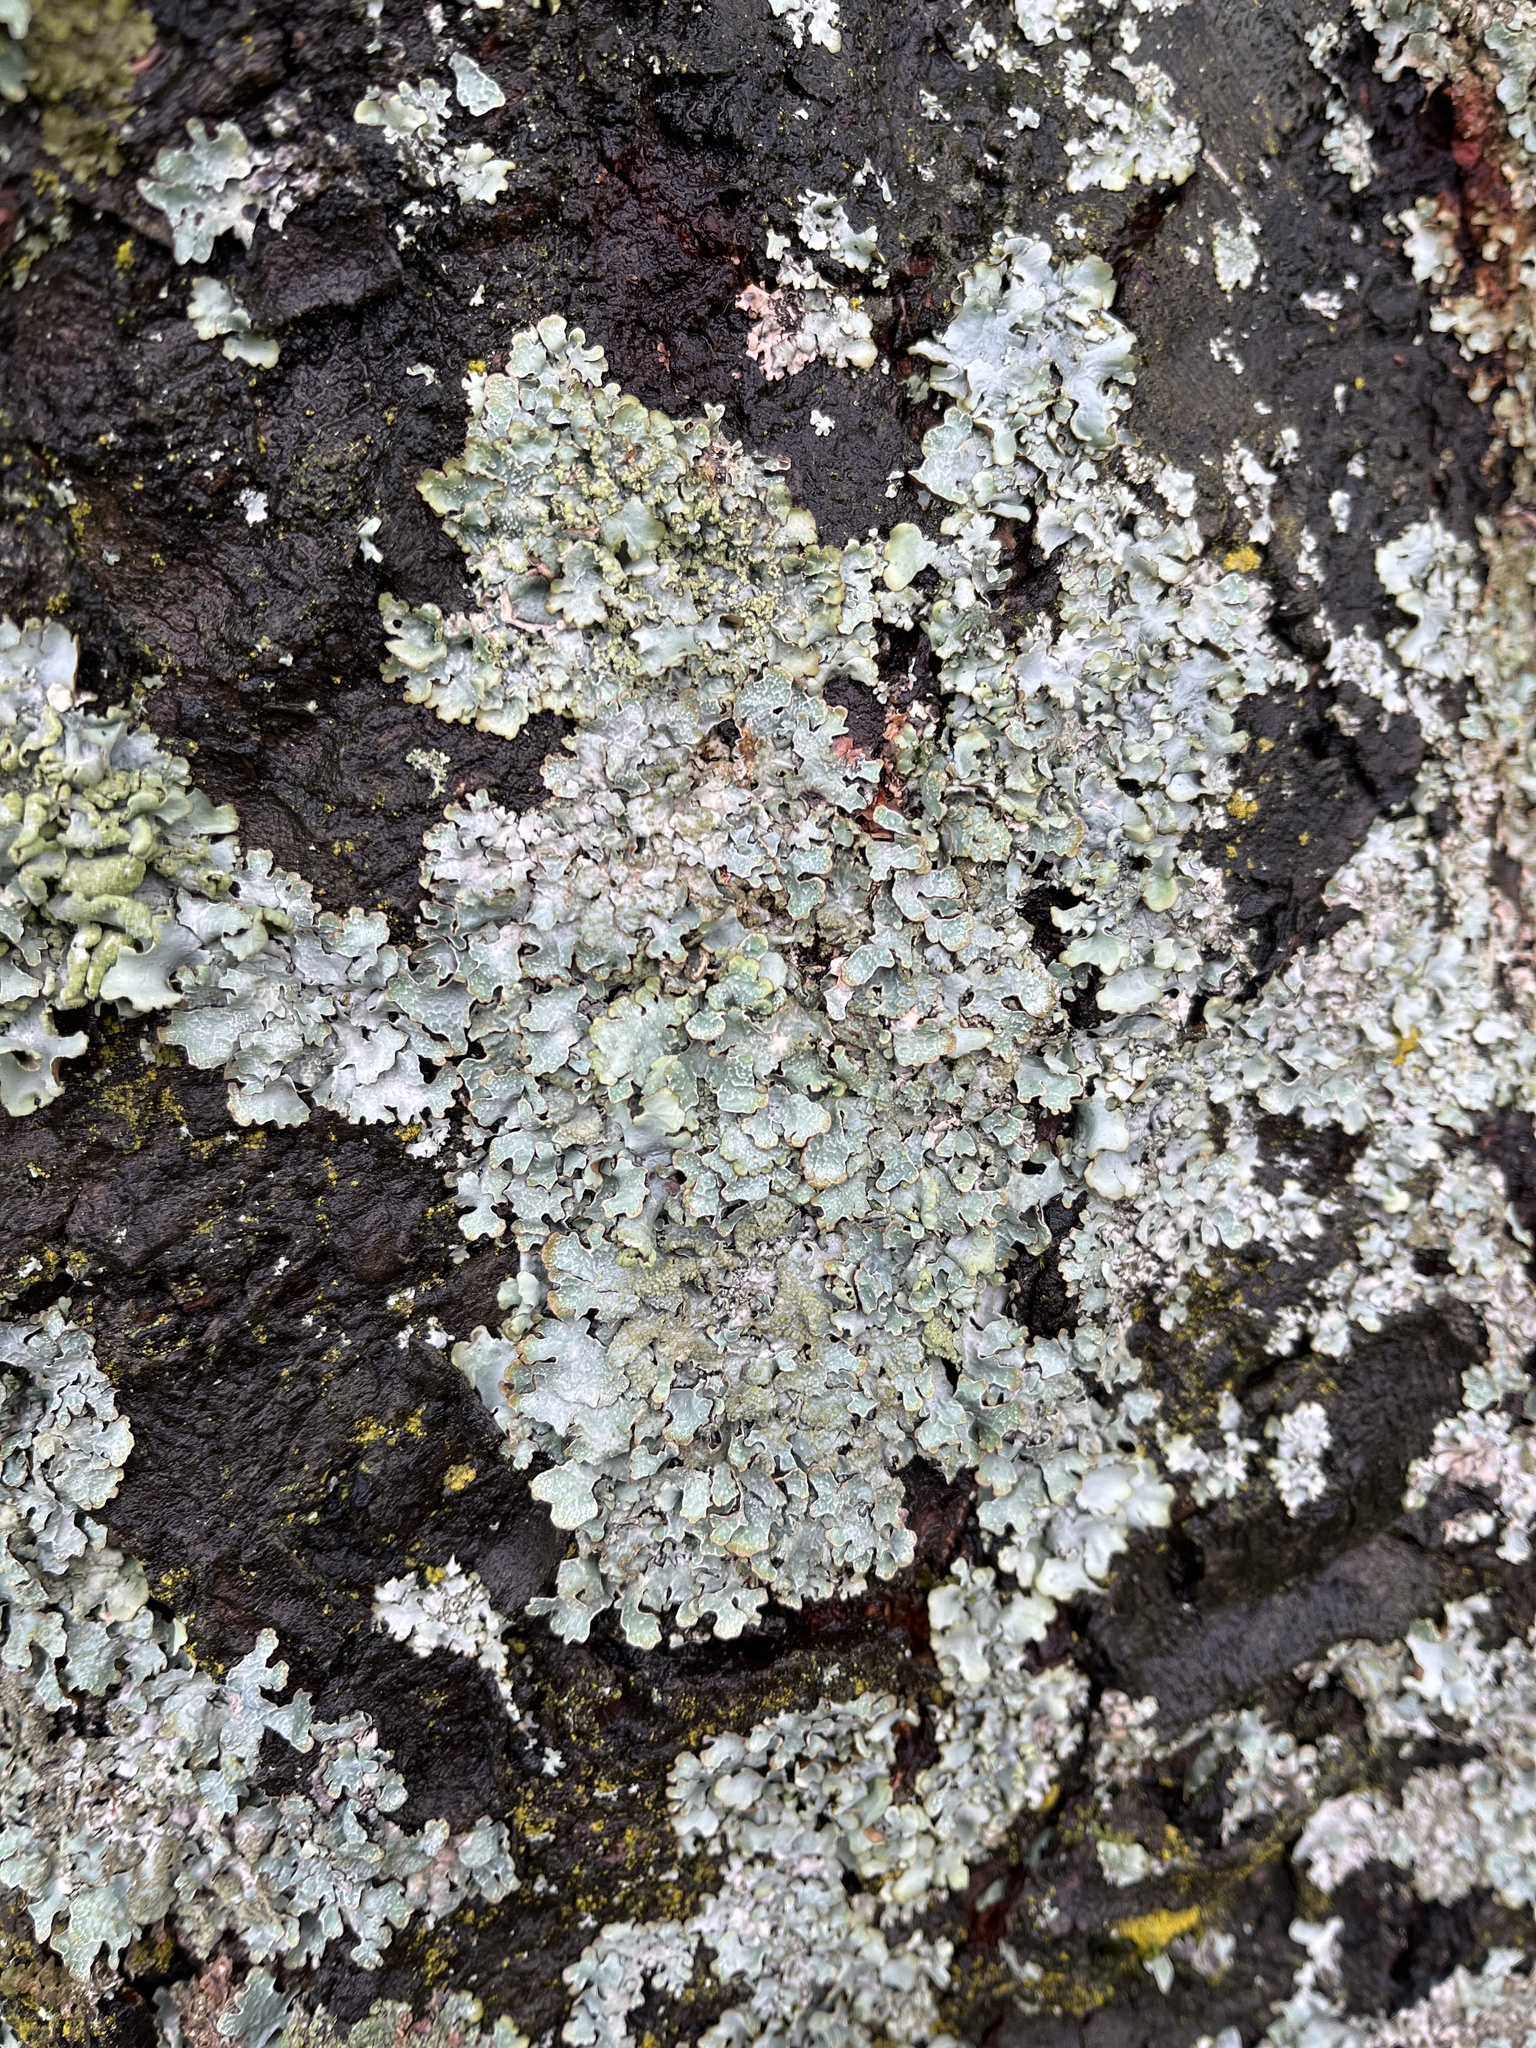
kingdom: Fungi
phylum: Ascomycota
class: Lecanoromycetes
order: Lecanorales
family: Parmeliaceae
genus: Parmelia
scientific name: Parmelia sulcata
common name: Netted shield lichen
